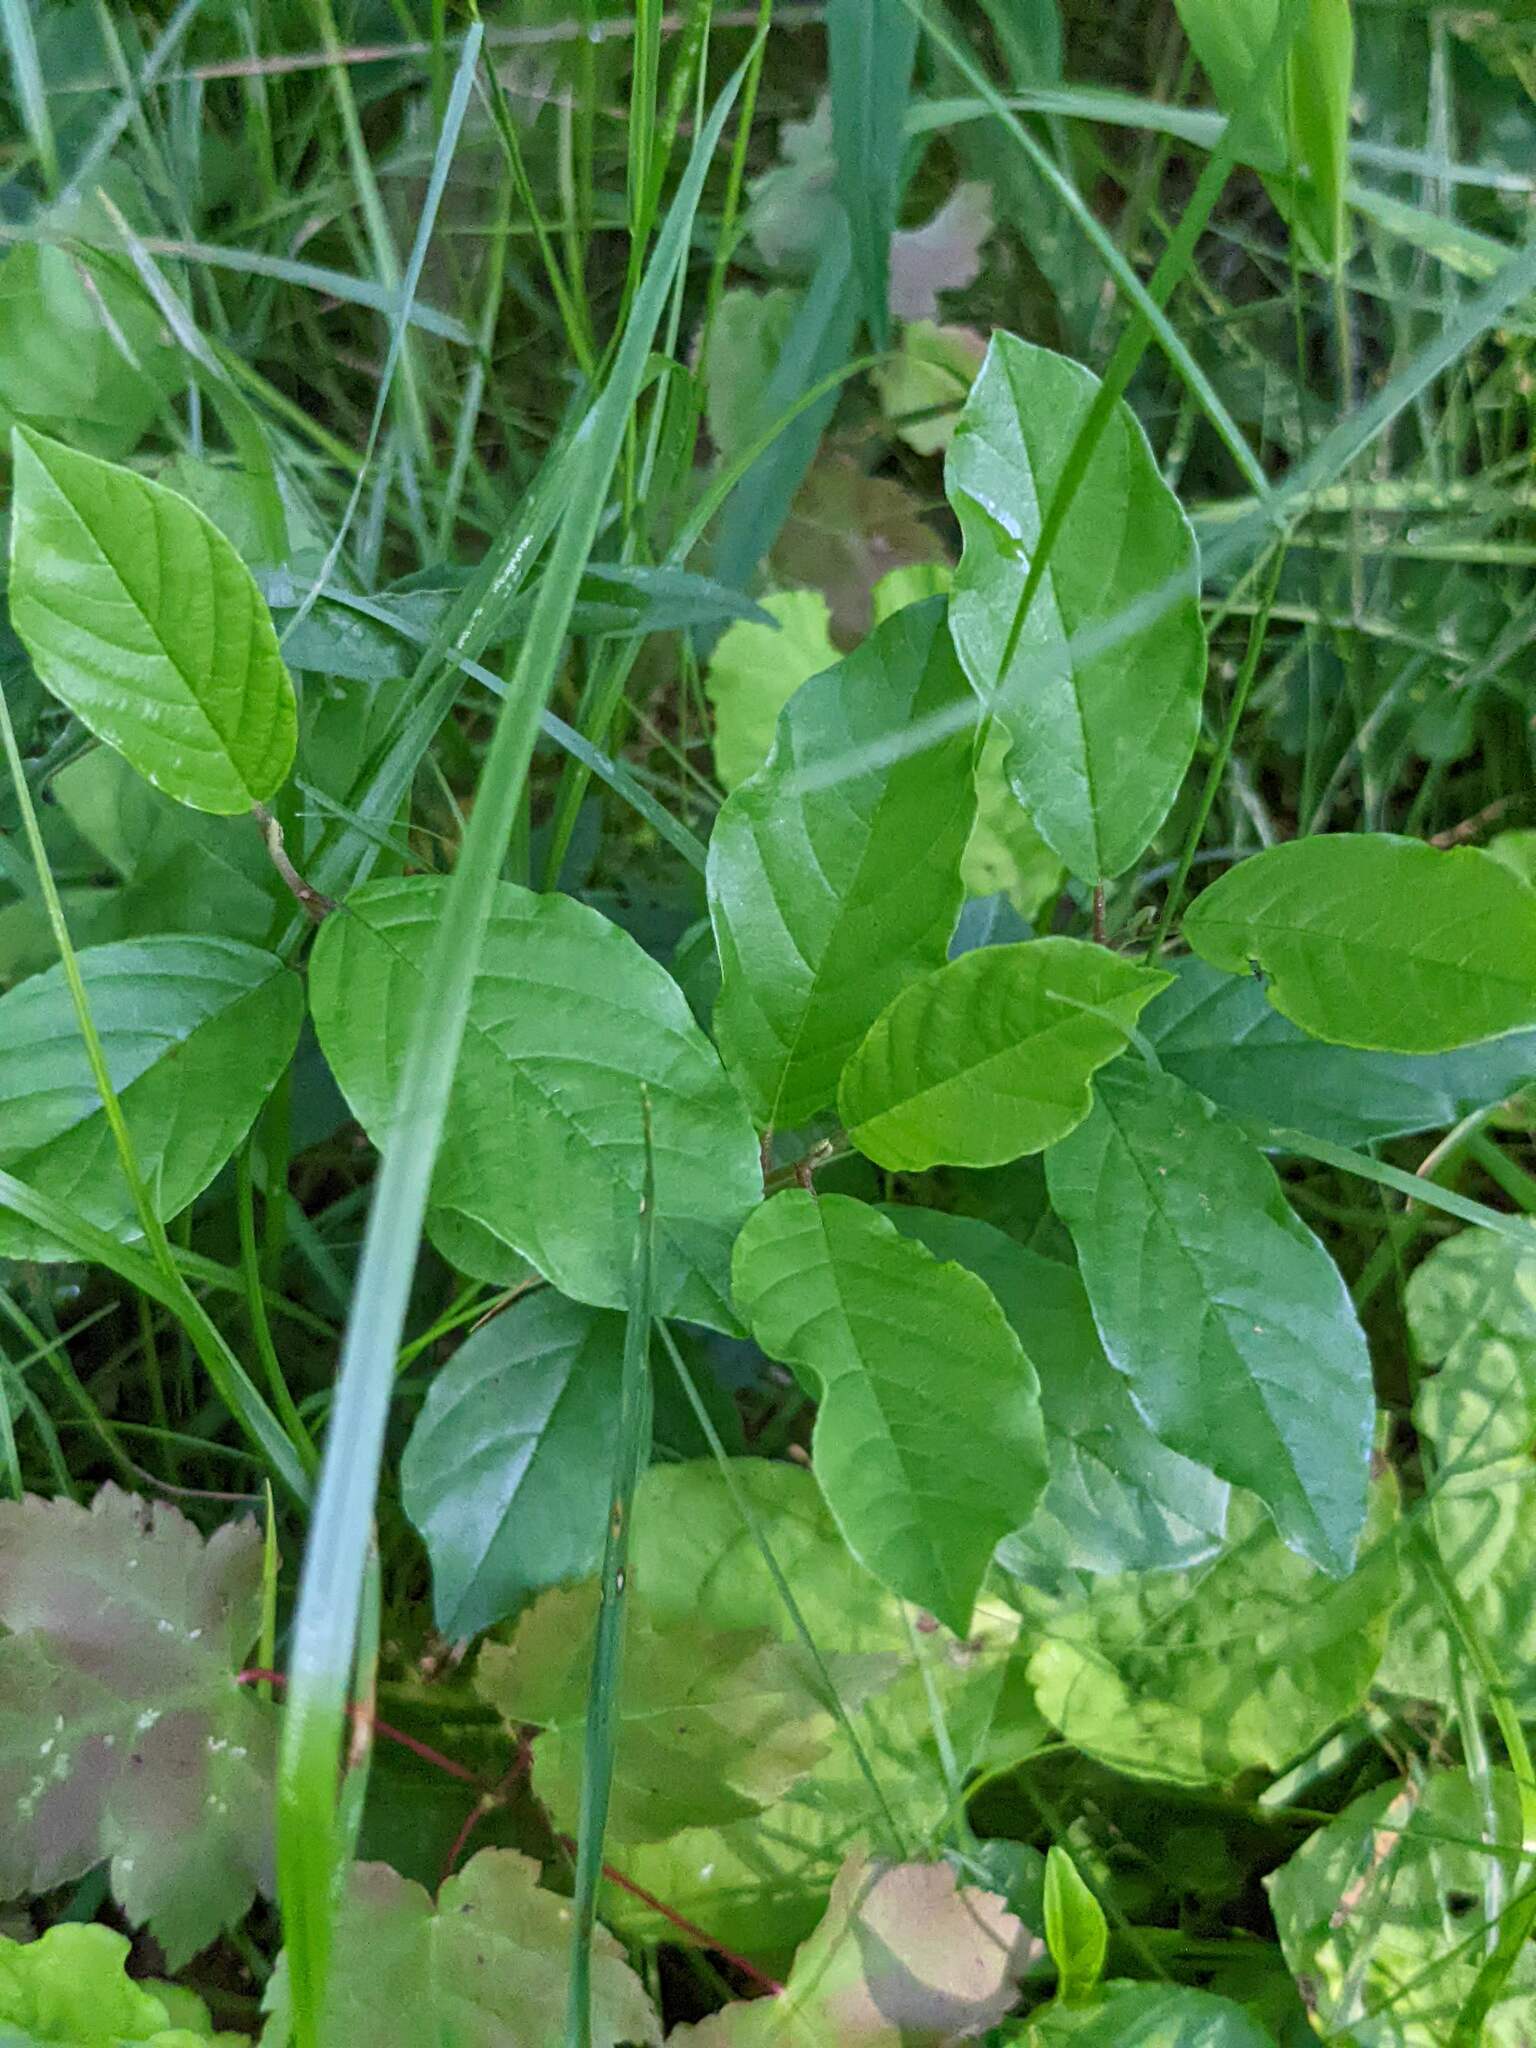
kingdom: Plantae
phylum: Tracheophyta
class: Magnoliopsida
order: Rosales
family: Rhamnaceae
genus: Frangula
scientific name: Frangula alnus
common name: Alder buckthorn
